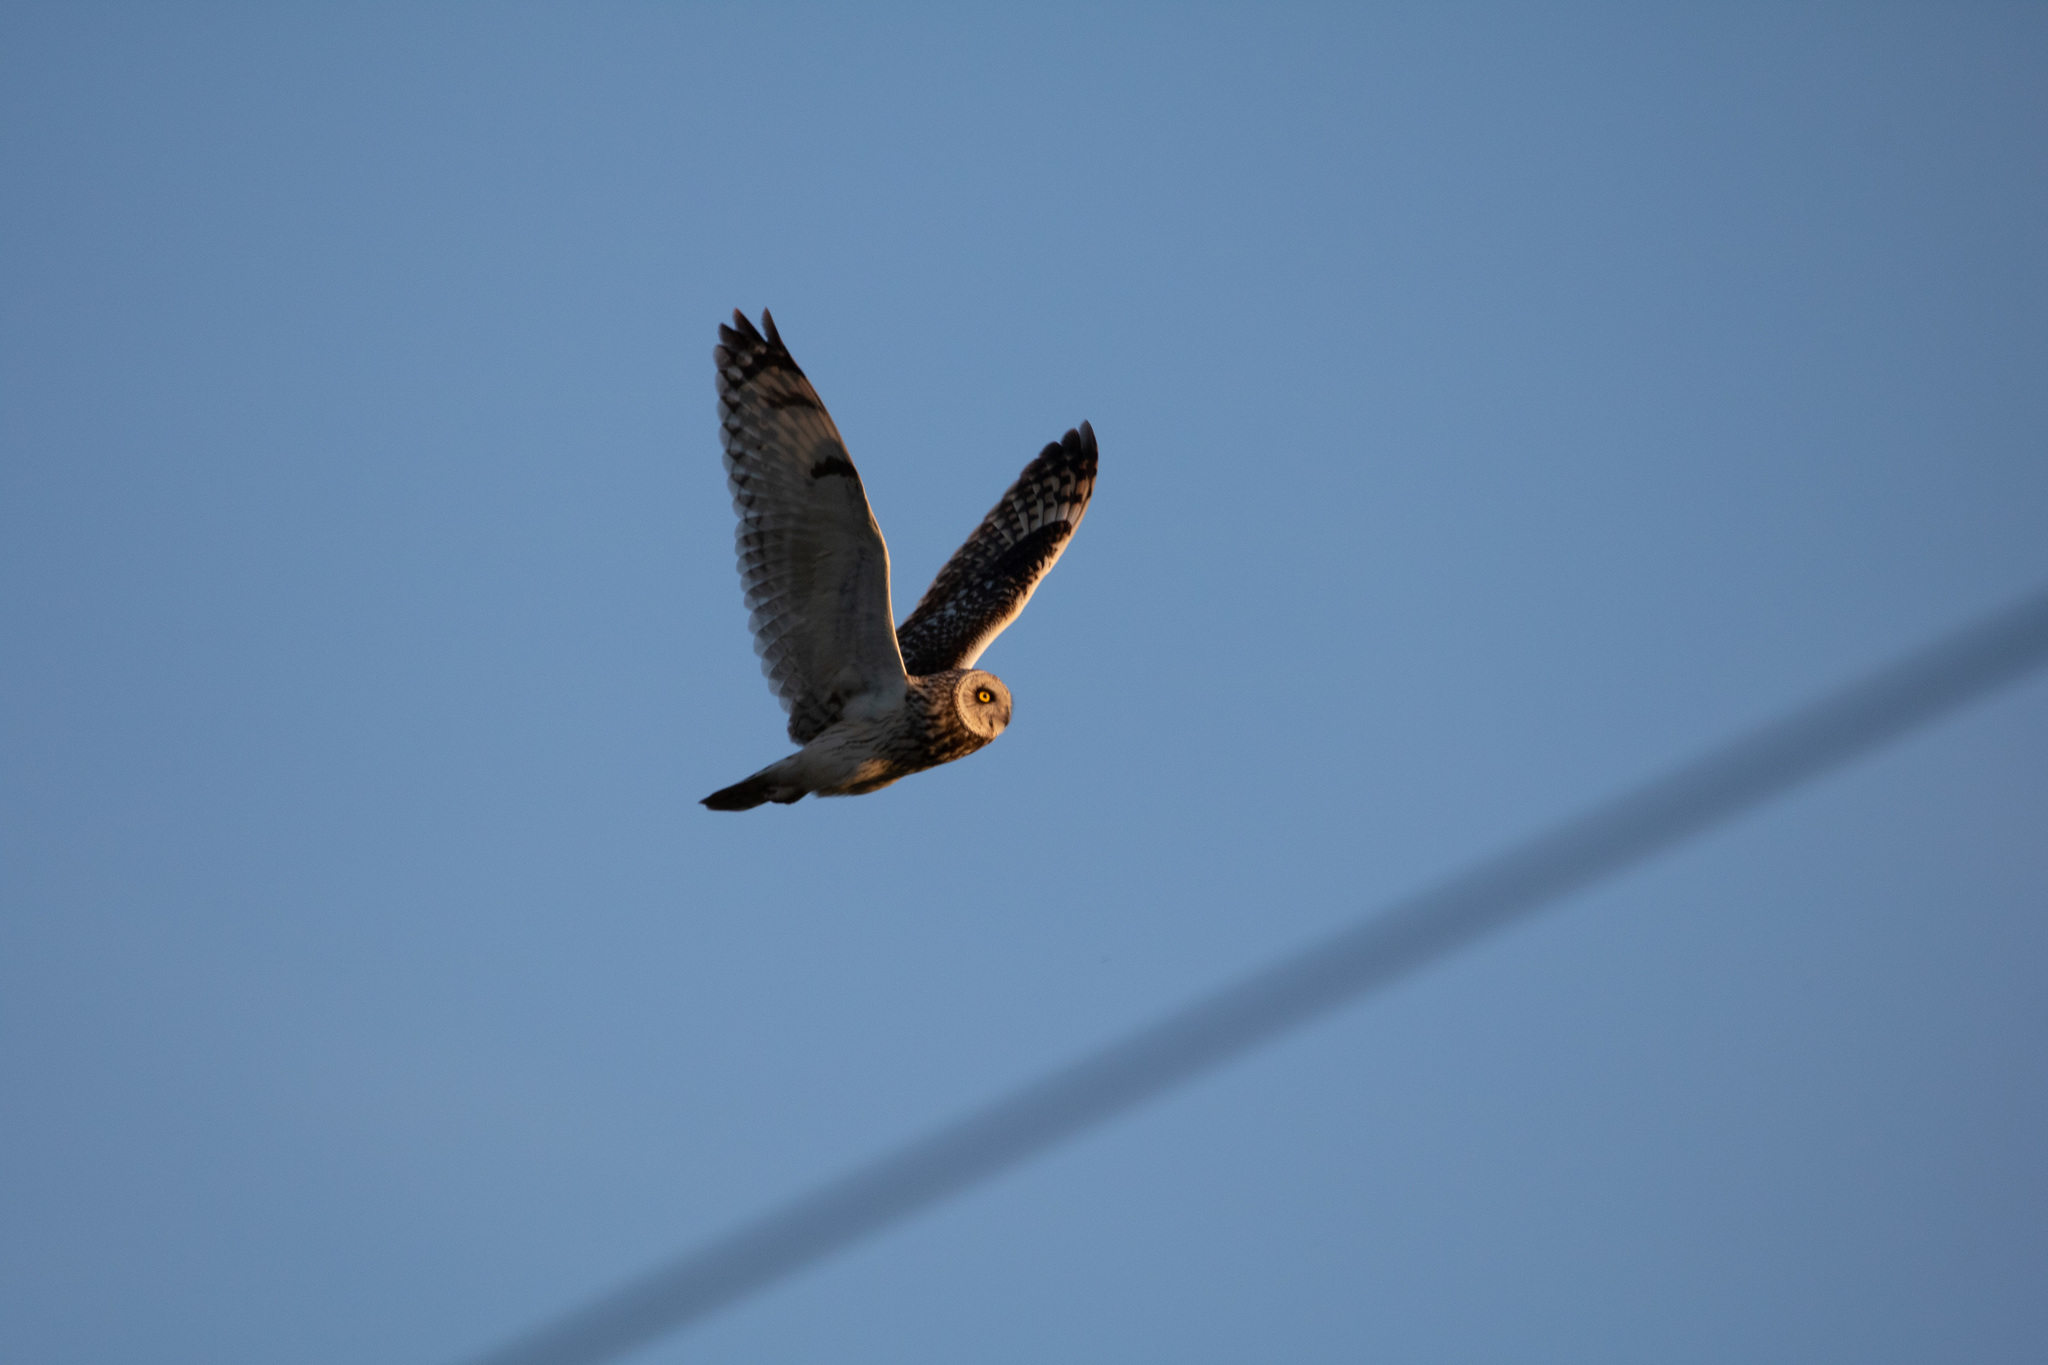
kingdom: Animalia
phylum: Chordata
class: Aves
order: Strigiformes
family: Strigidae
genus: Asio
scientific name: Asio flammeus
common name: Short-eared owl
